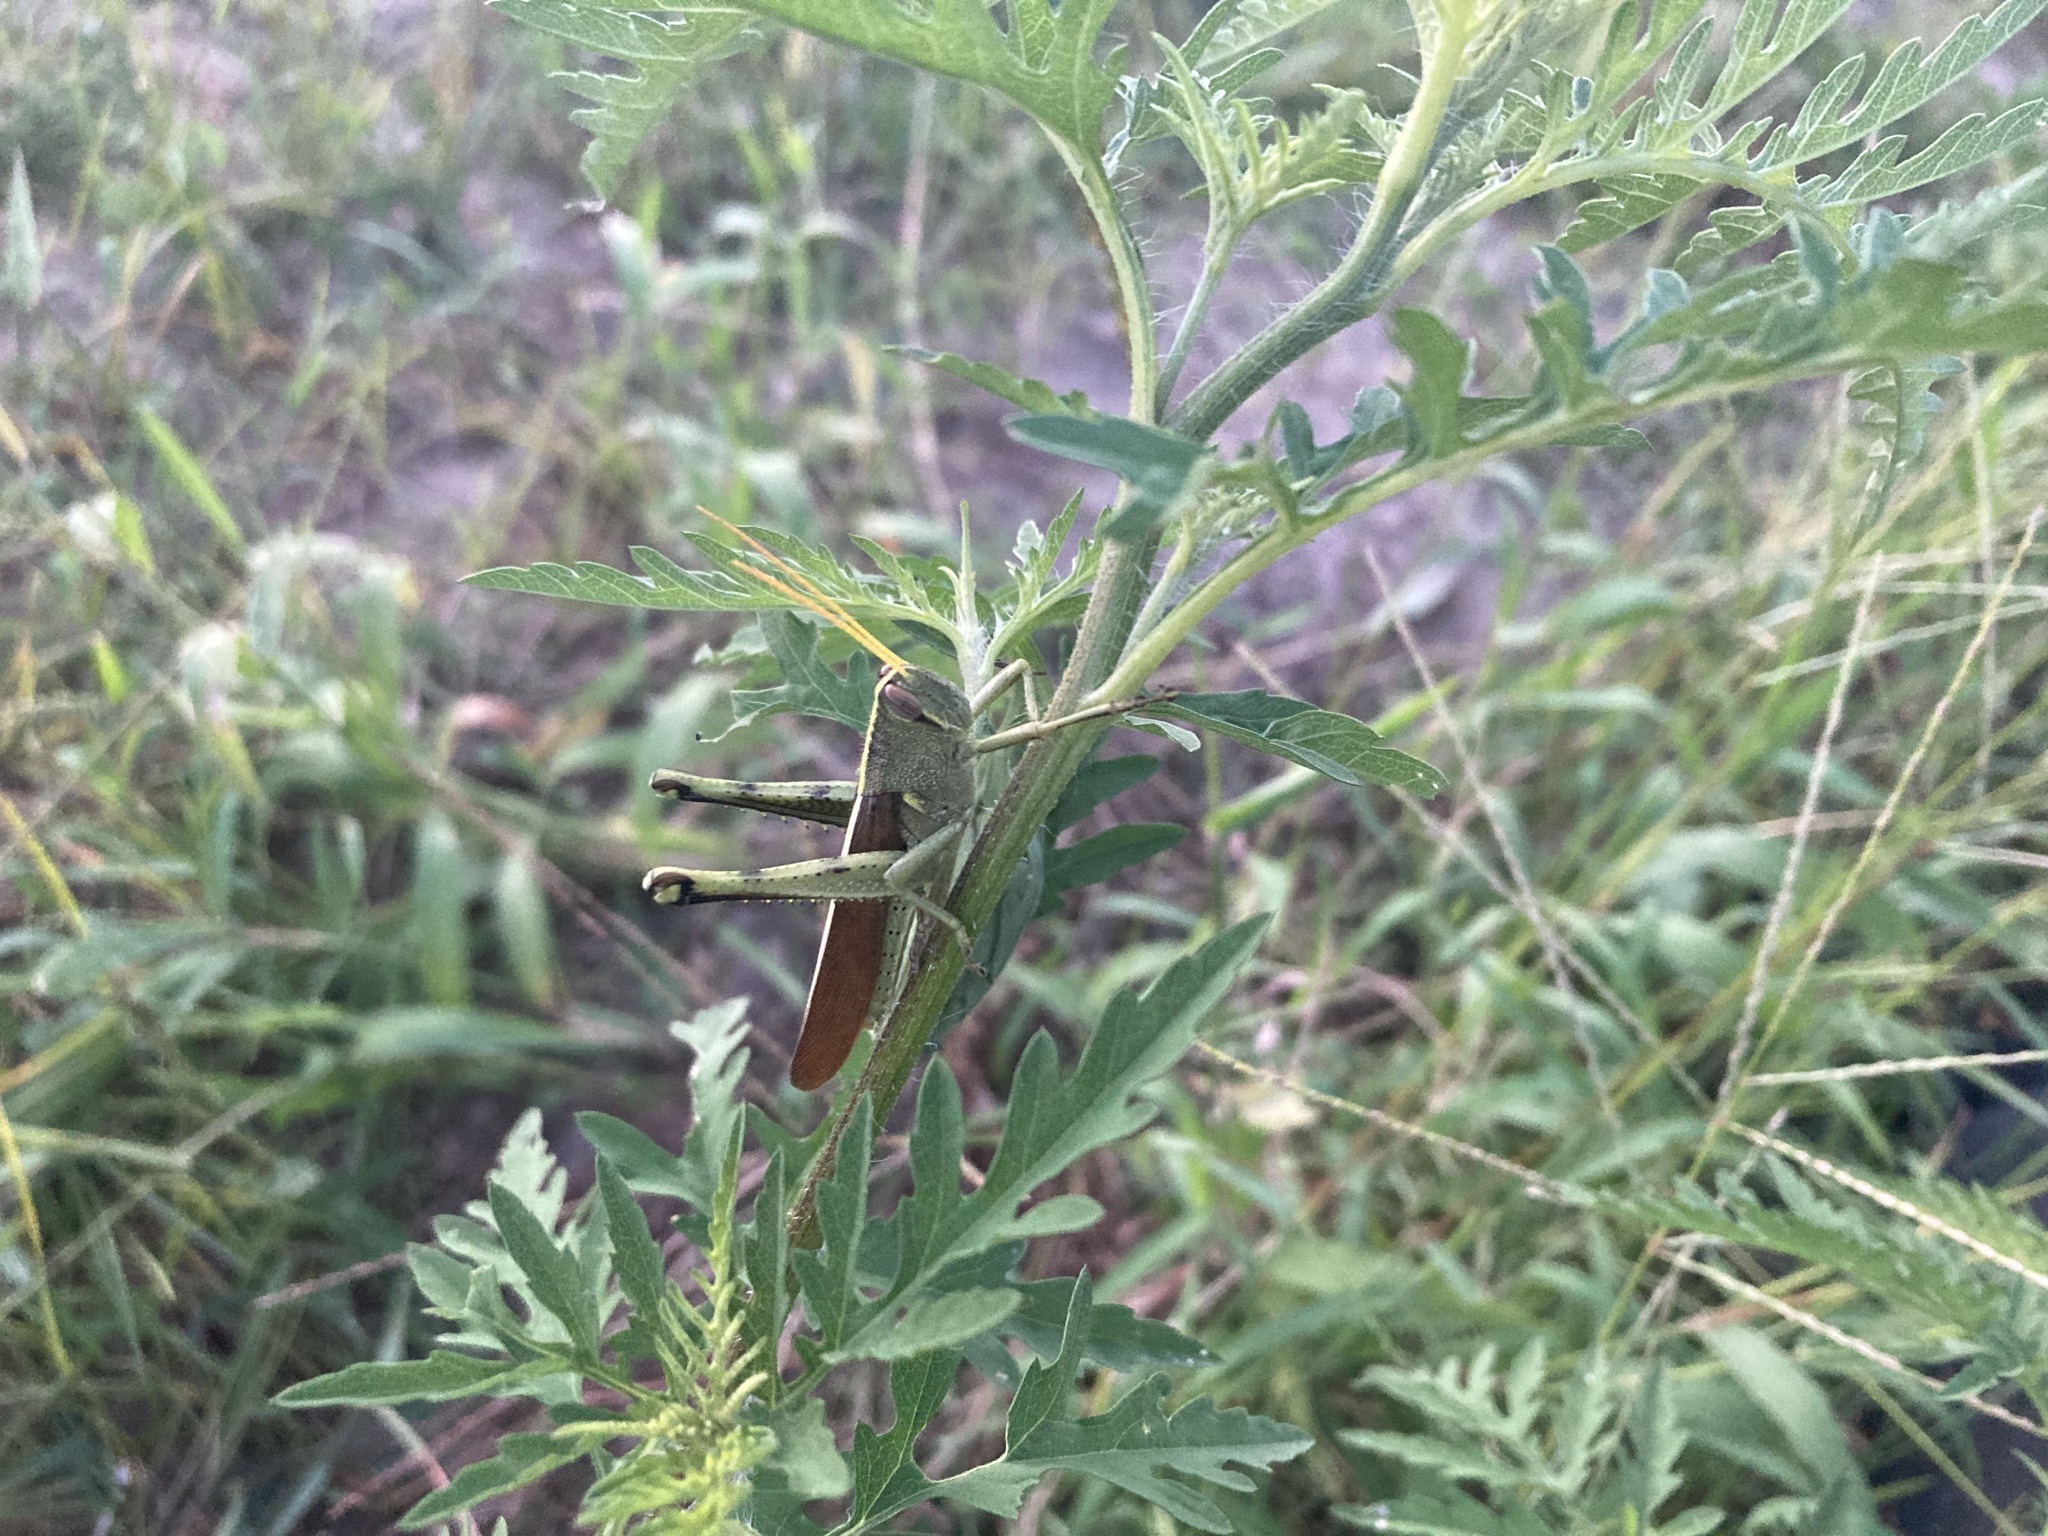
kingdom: Animalia
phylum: Arthropoda
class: Insecta
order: Orthoptera
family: Acrididae
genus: Schistocerca
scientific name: Schistocerca obscura
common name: Obscure bird grasshopper
